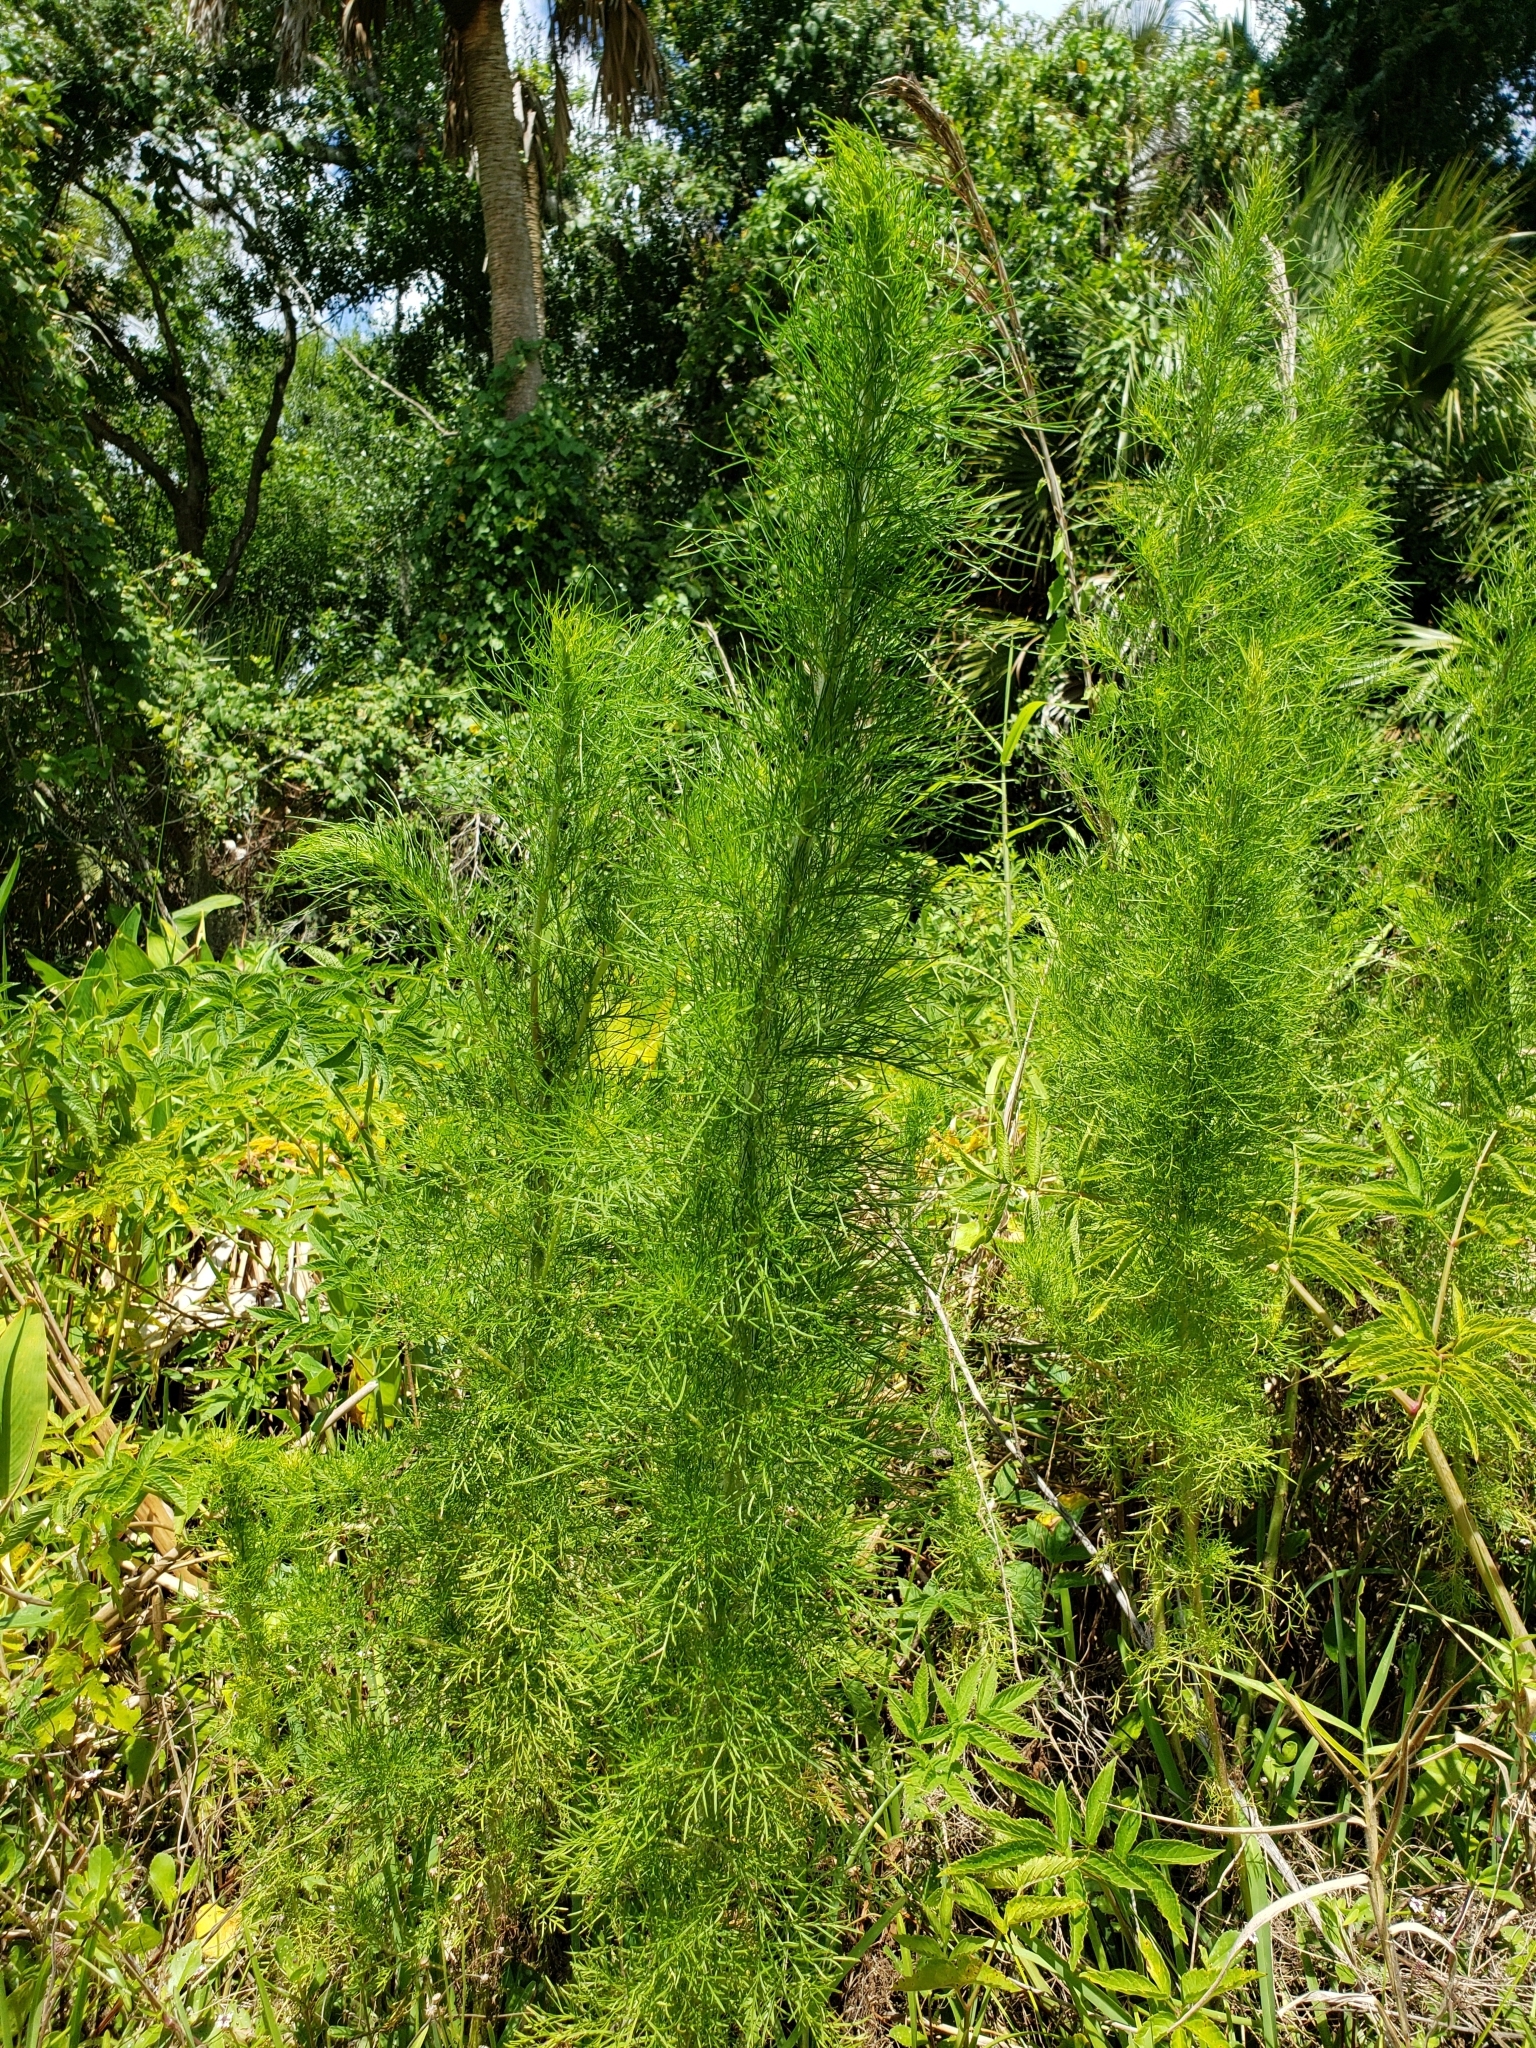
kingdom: Plantae
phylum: Tracheophyta
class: Magnoliopsida
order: Asterales
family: Asteraceae
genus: Eupatorium
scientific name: Eupatorium capillifolium
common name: Dog-fennel
